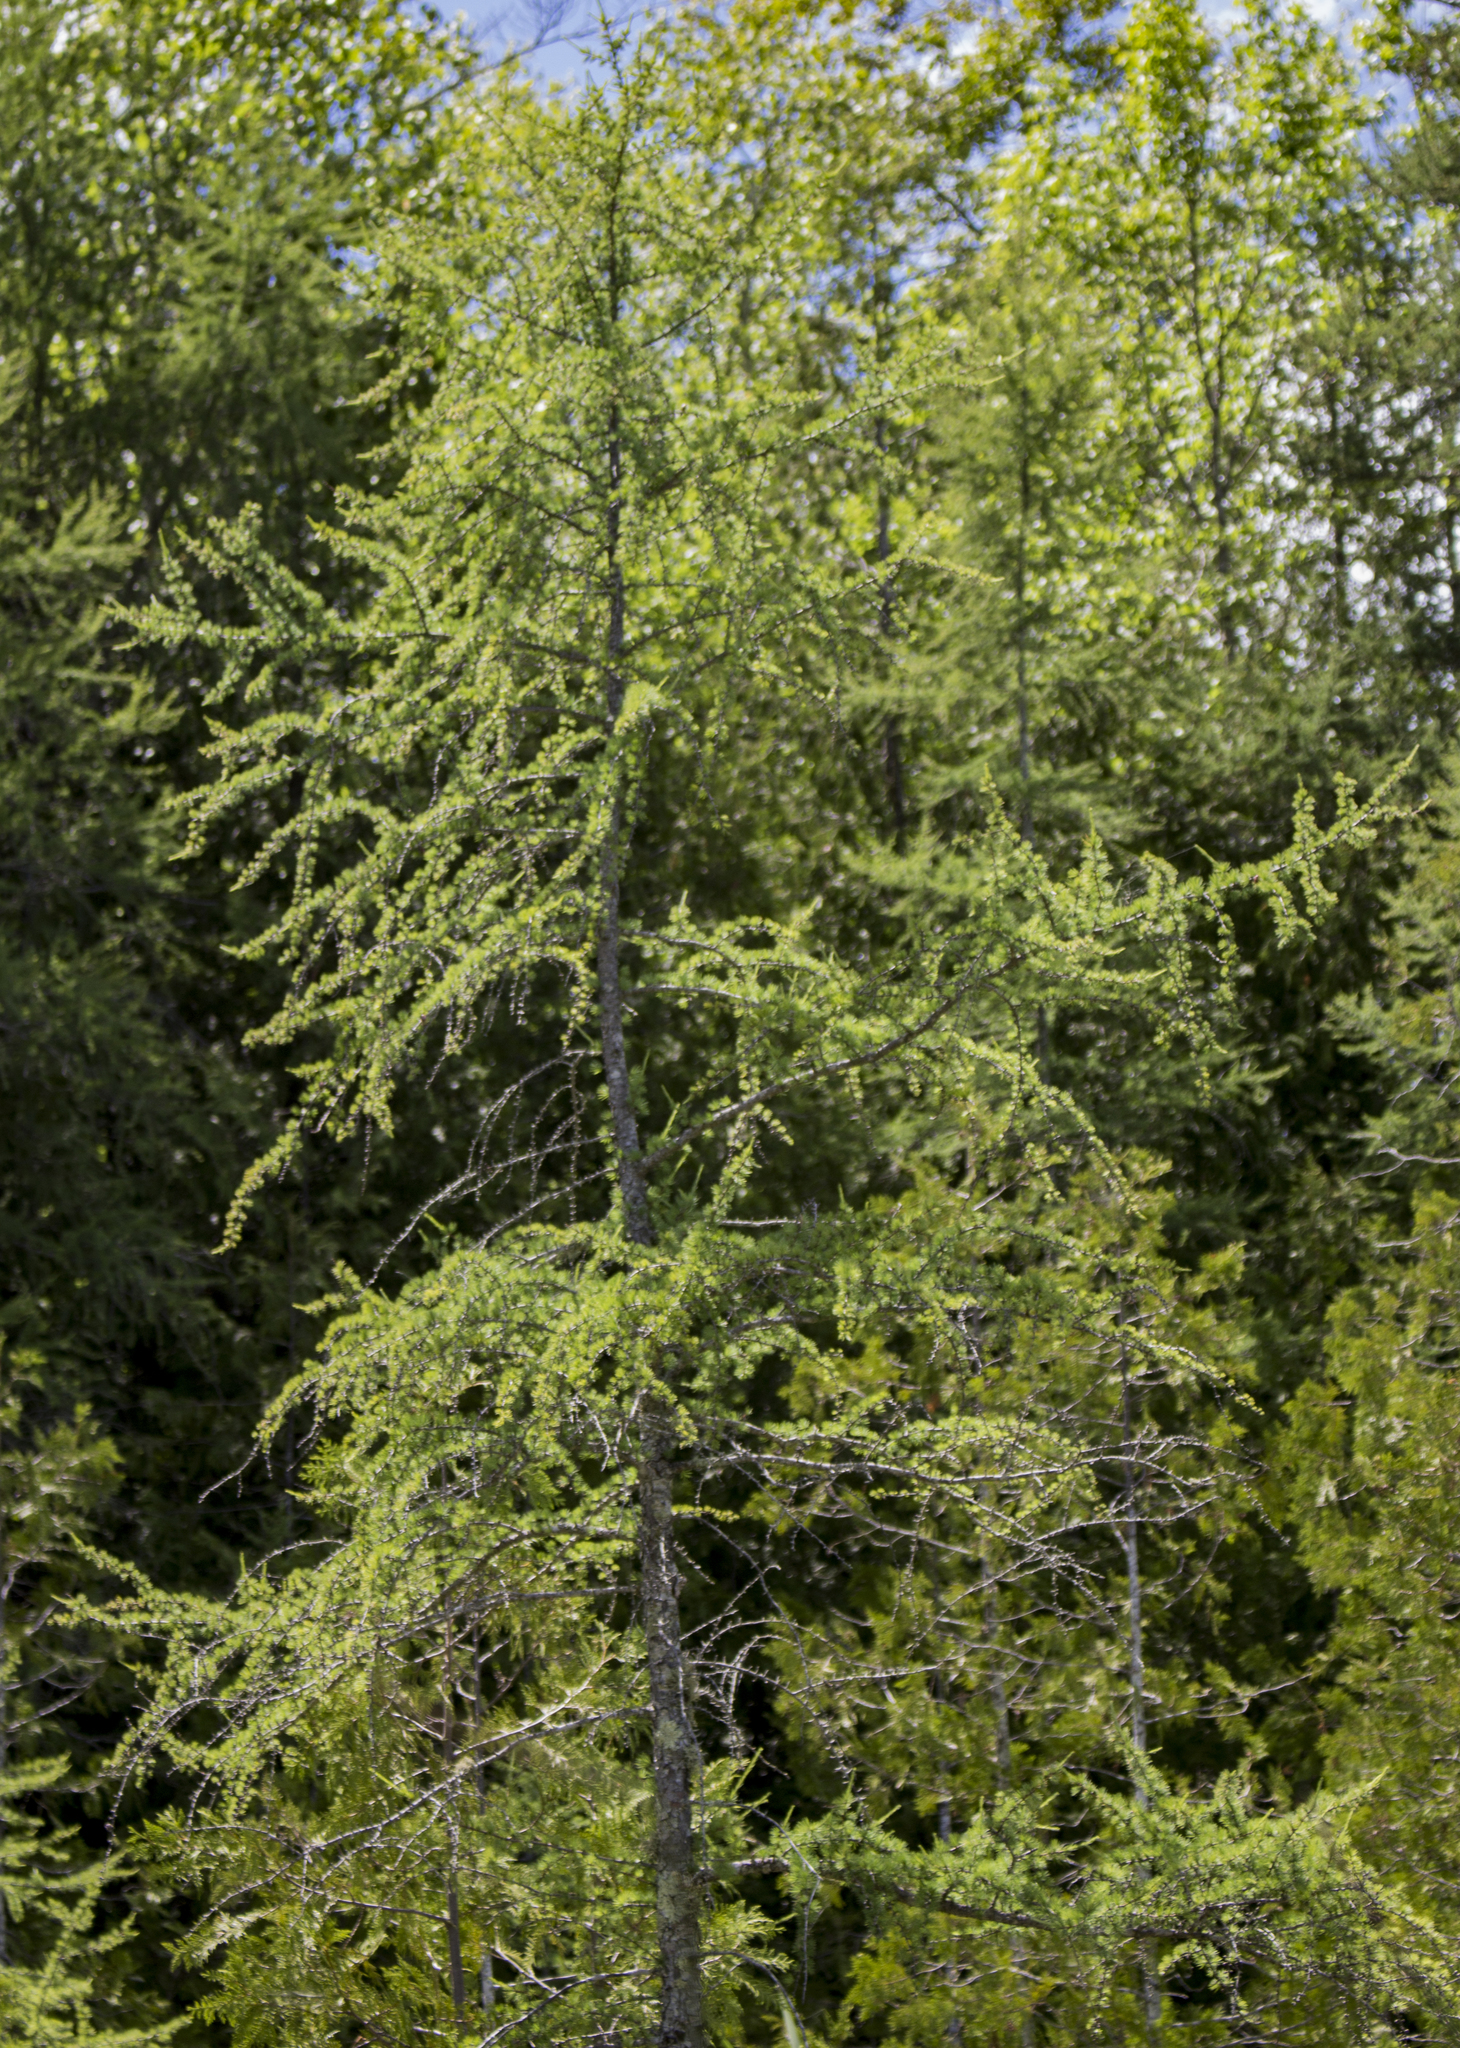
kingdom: Plantae
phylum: Tracheophyta
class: Pinopsida
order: Pinales
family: Pinaceae
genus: Larix
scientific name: Larix laricina
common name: American larch
